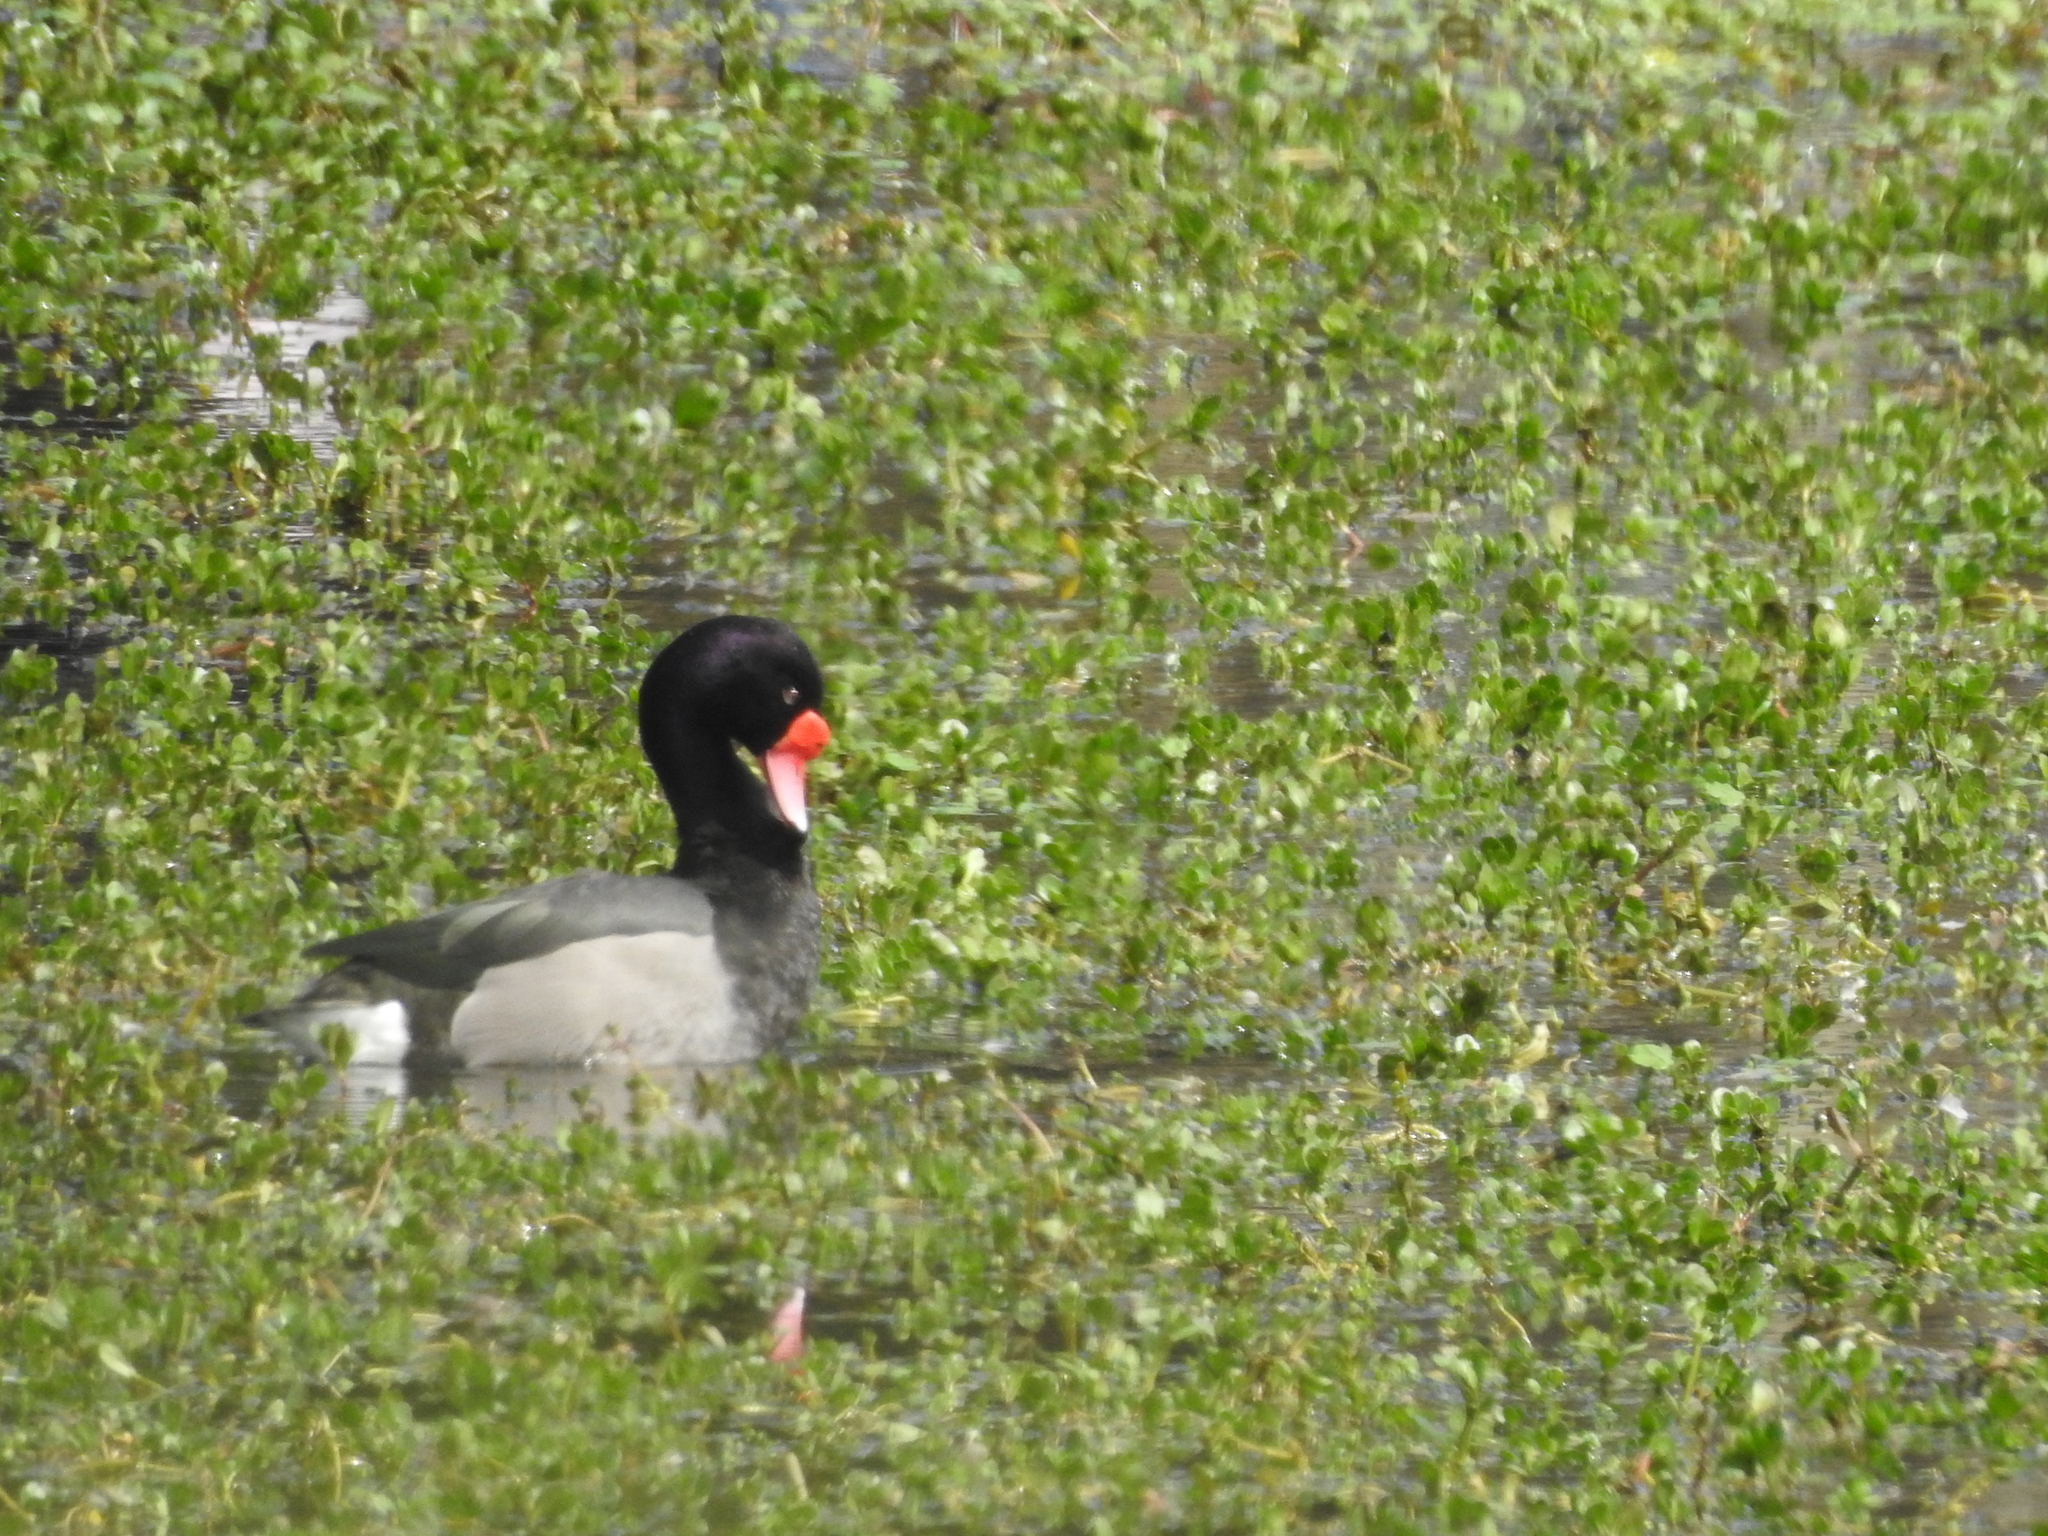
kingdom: Animalia
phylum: Chordata
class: Aves
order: Anseriformes
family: Anatidae
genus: Netta
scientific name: Netta peposaca
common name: Rosy-billed pochard
